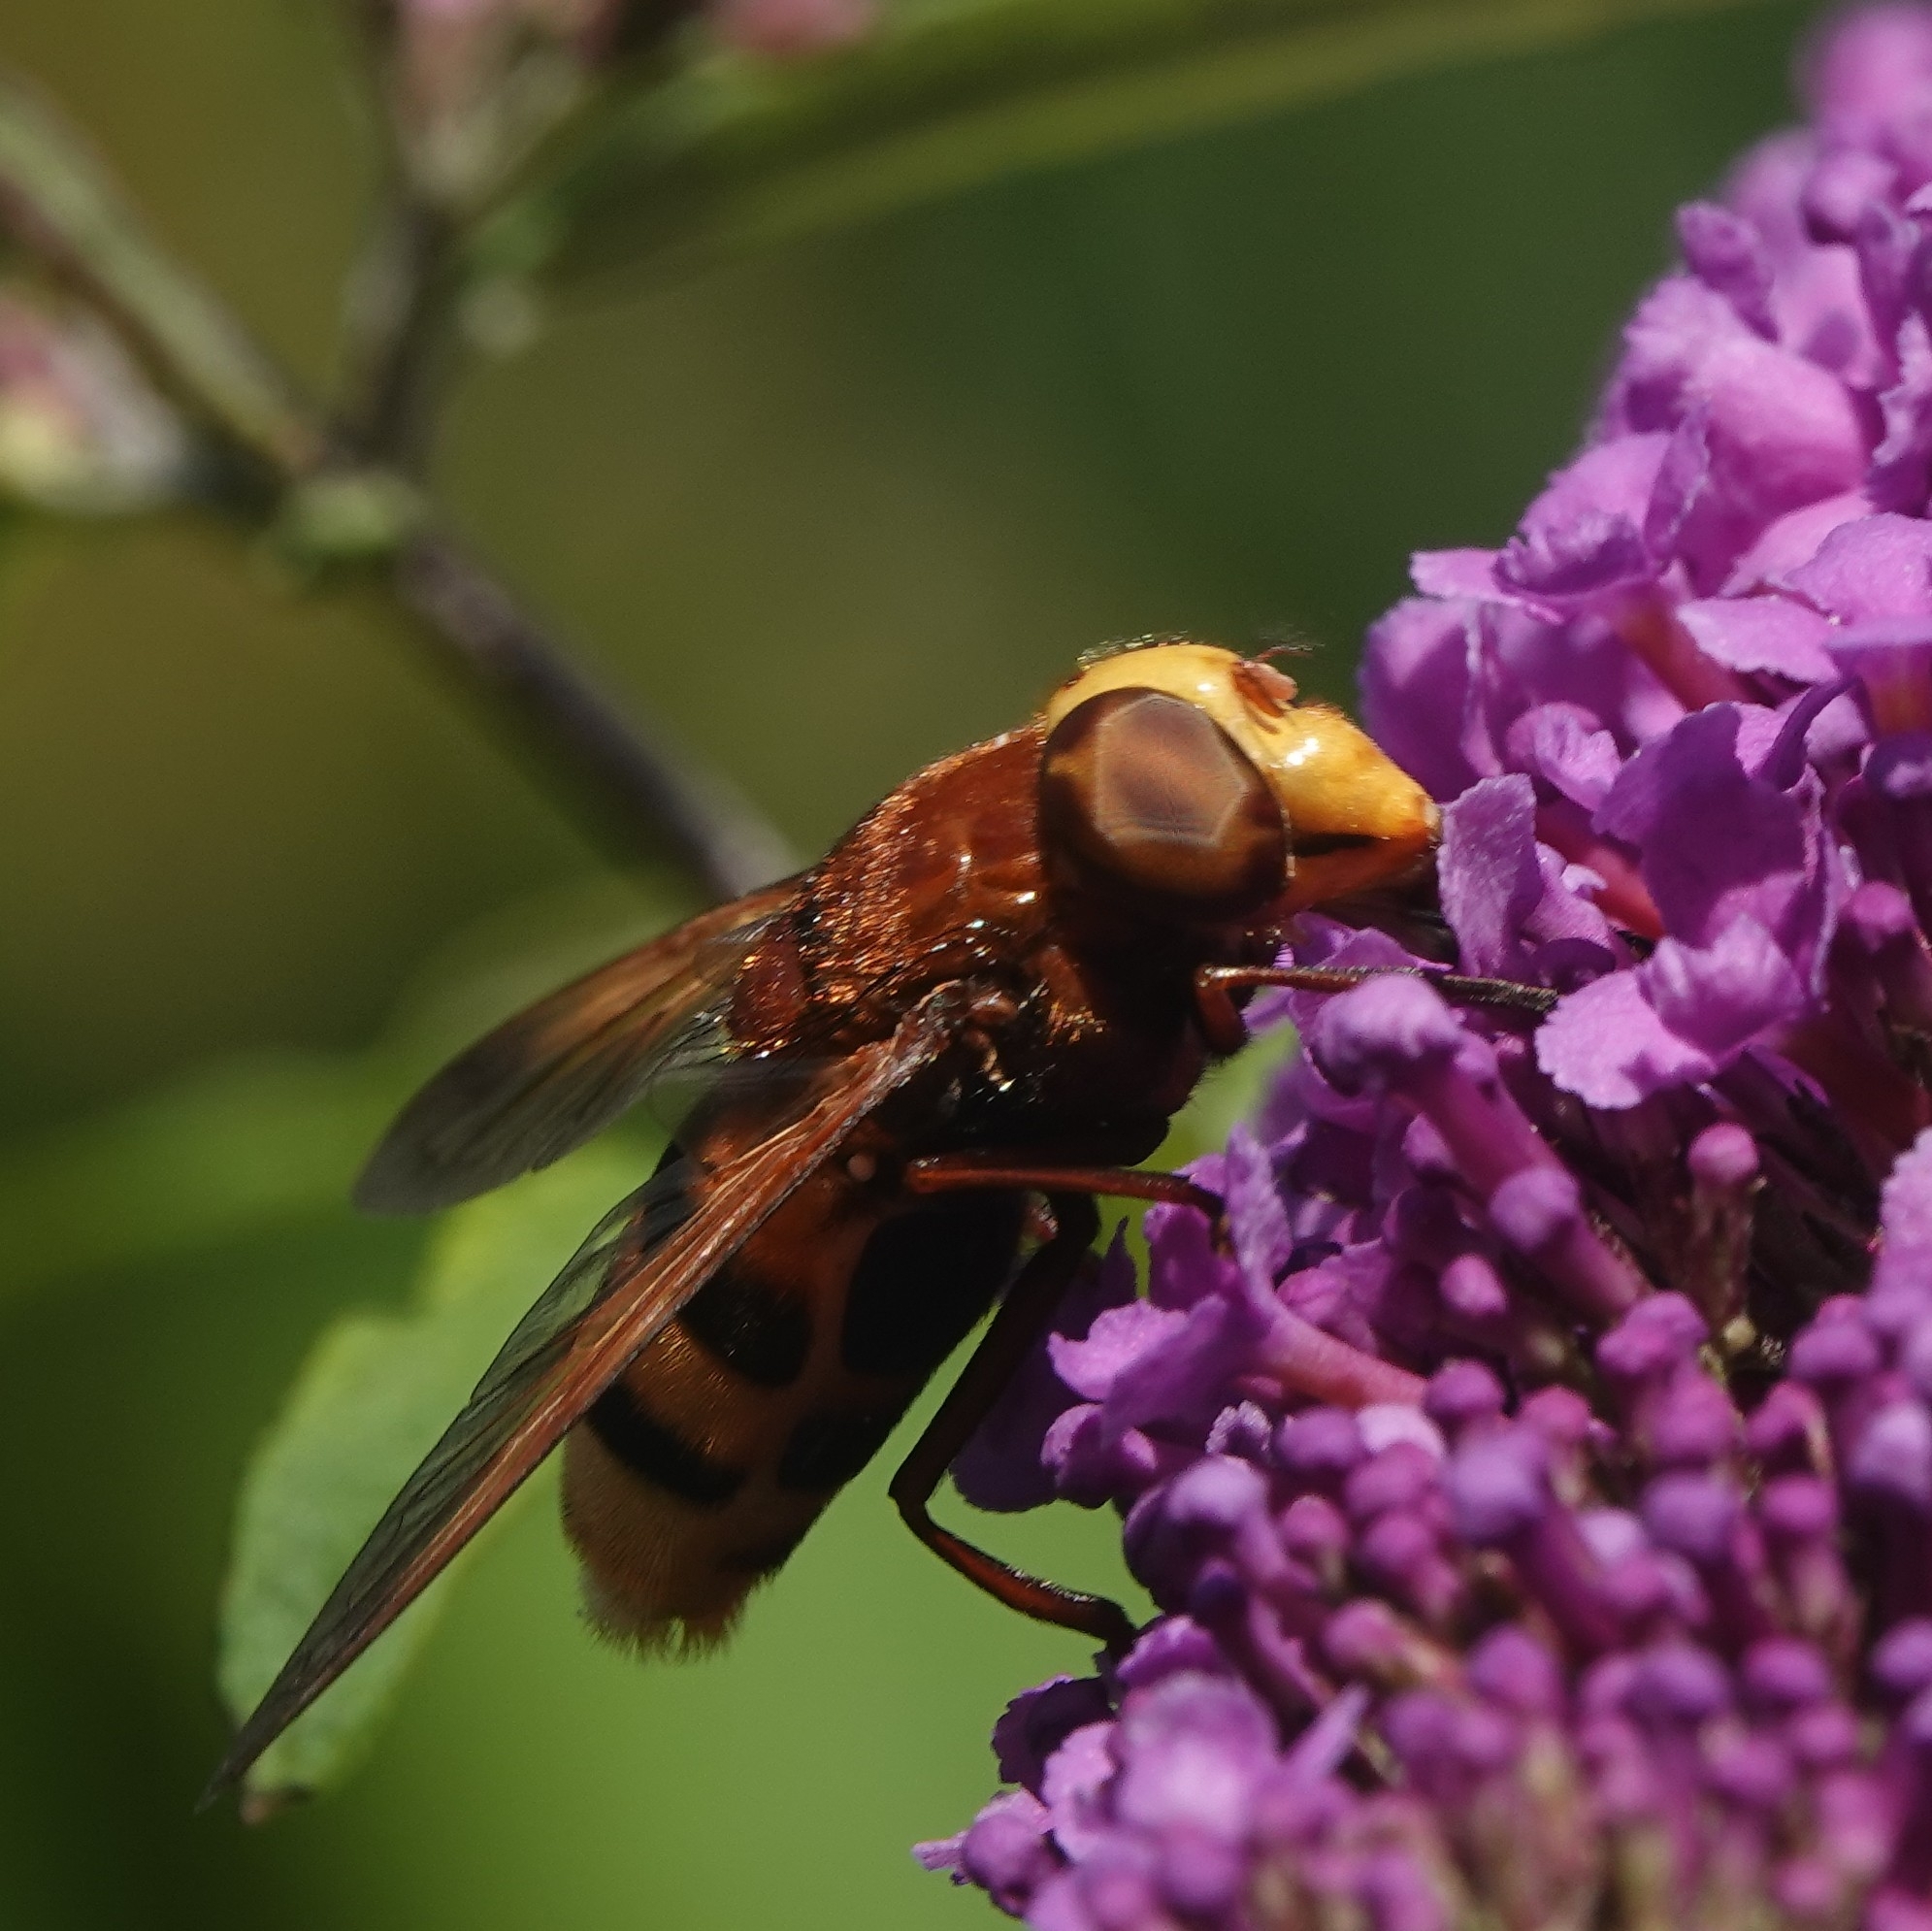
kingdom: Animalia
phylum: Arthropoda
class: Insecta
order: Diptera
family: Syrphidae
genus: Volucella
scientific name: Volucella zonaria
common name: Hornet hoverfly
